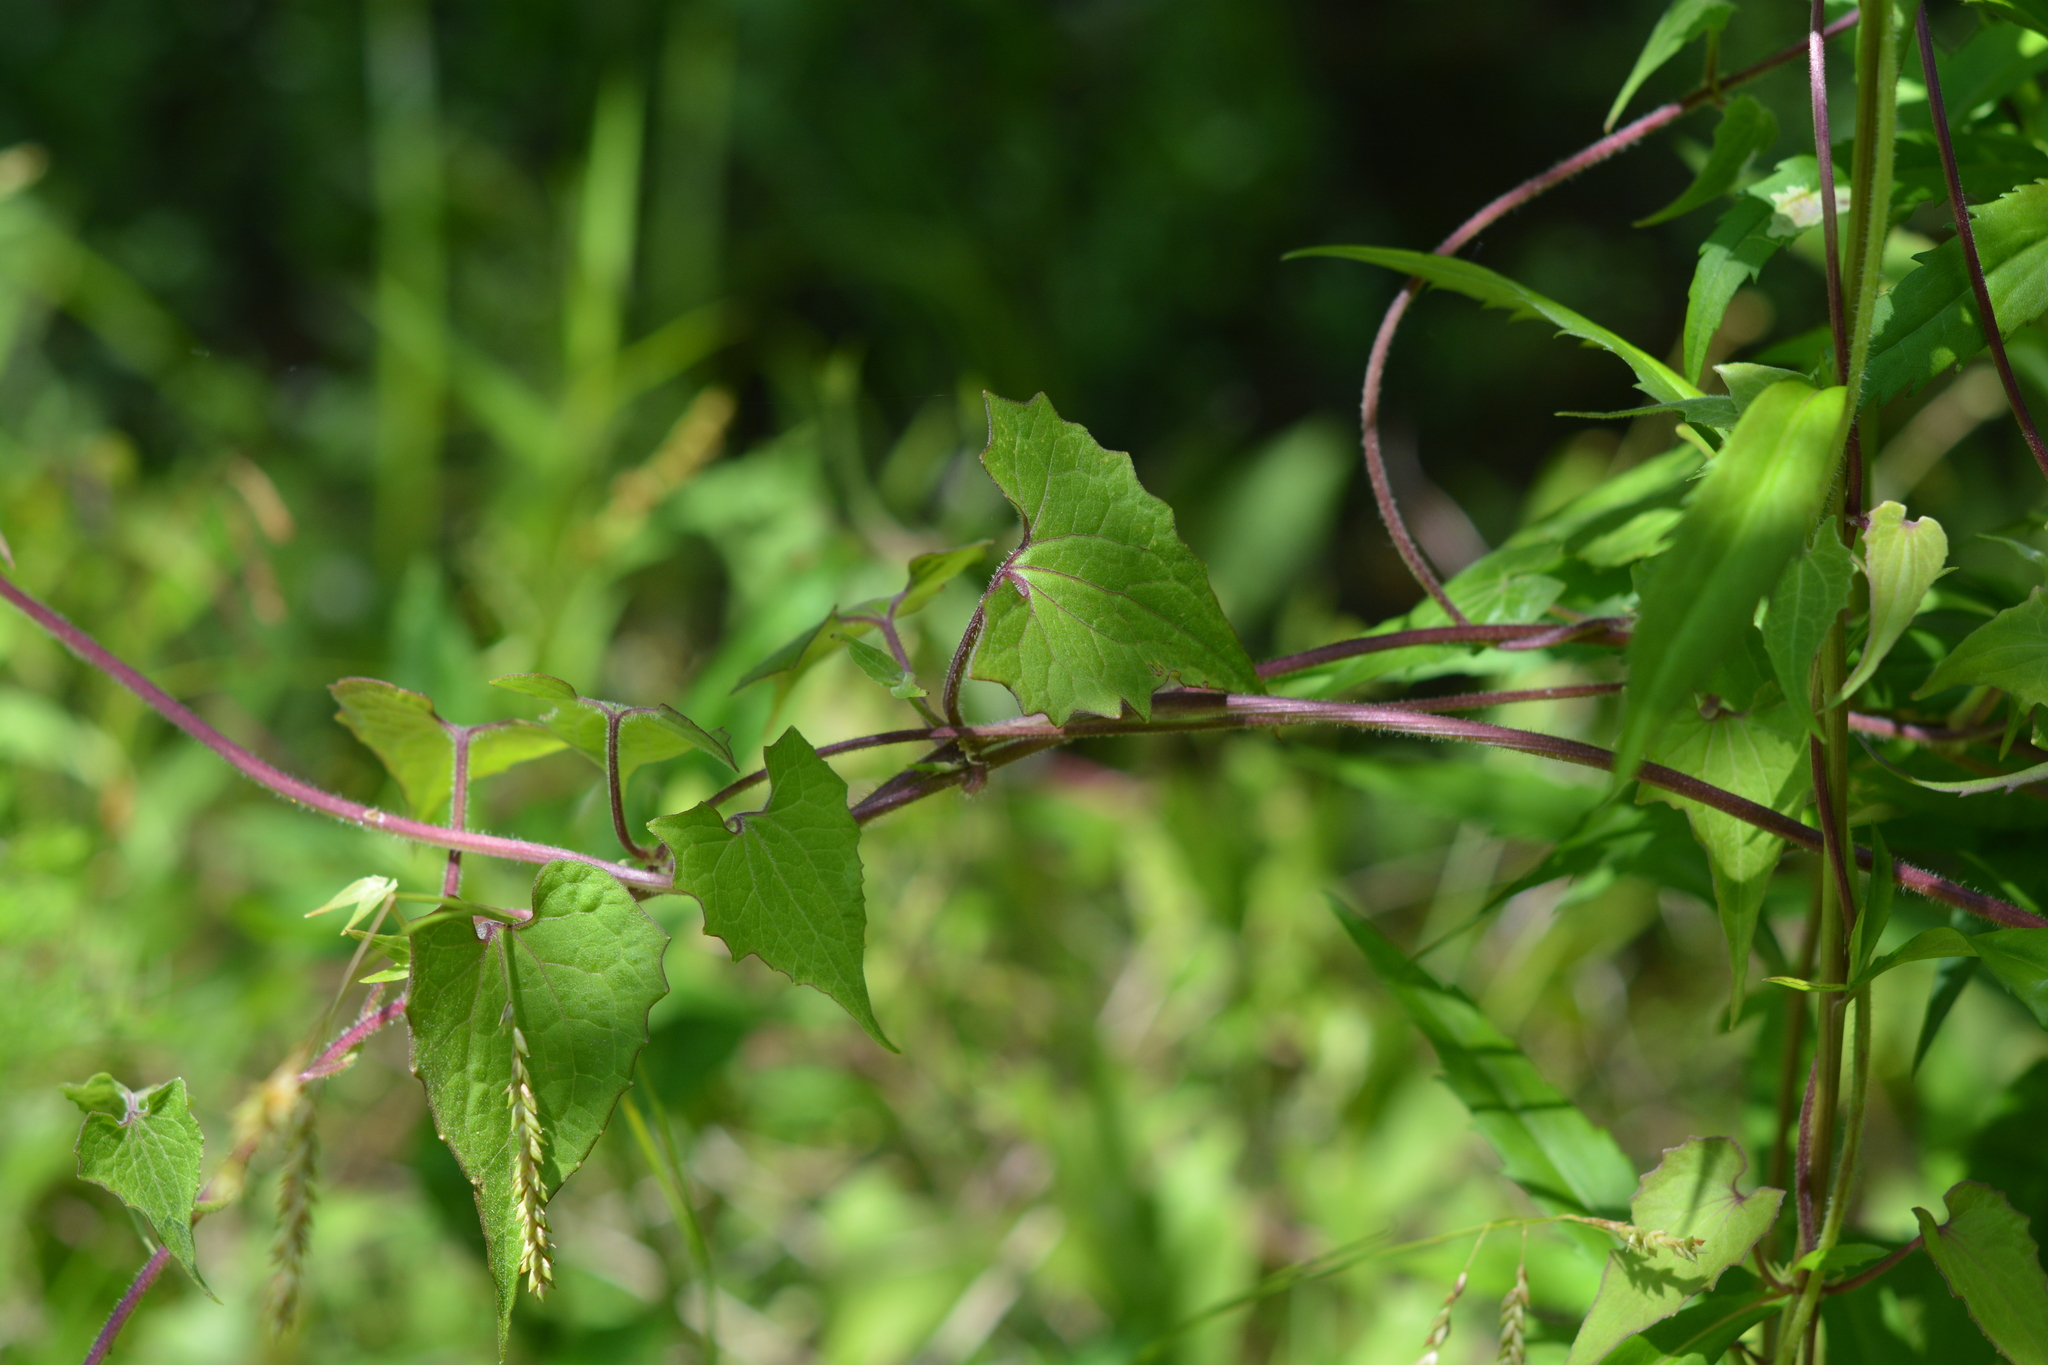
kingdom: Plantae
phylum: Tracheophyta
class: Magnoliopsida
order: Asterales
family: Asteraceae
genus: Mikania
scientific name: Mikania scandens
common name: Climbing hempvine
